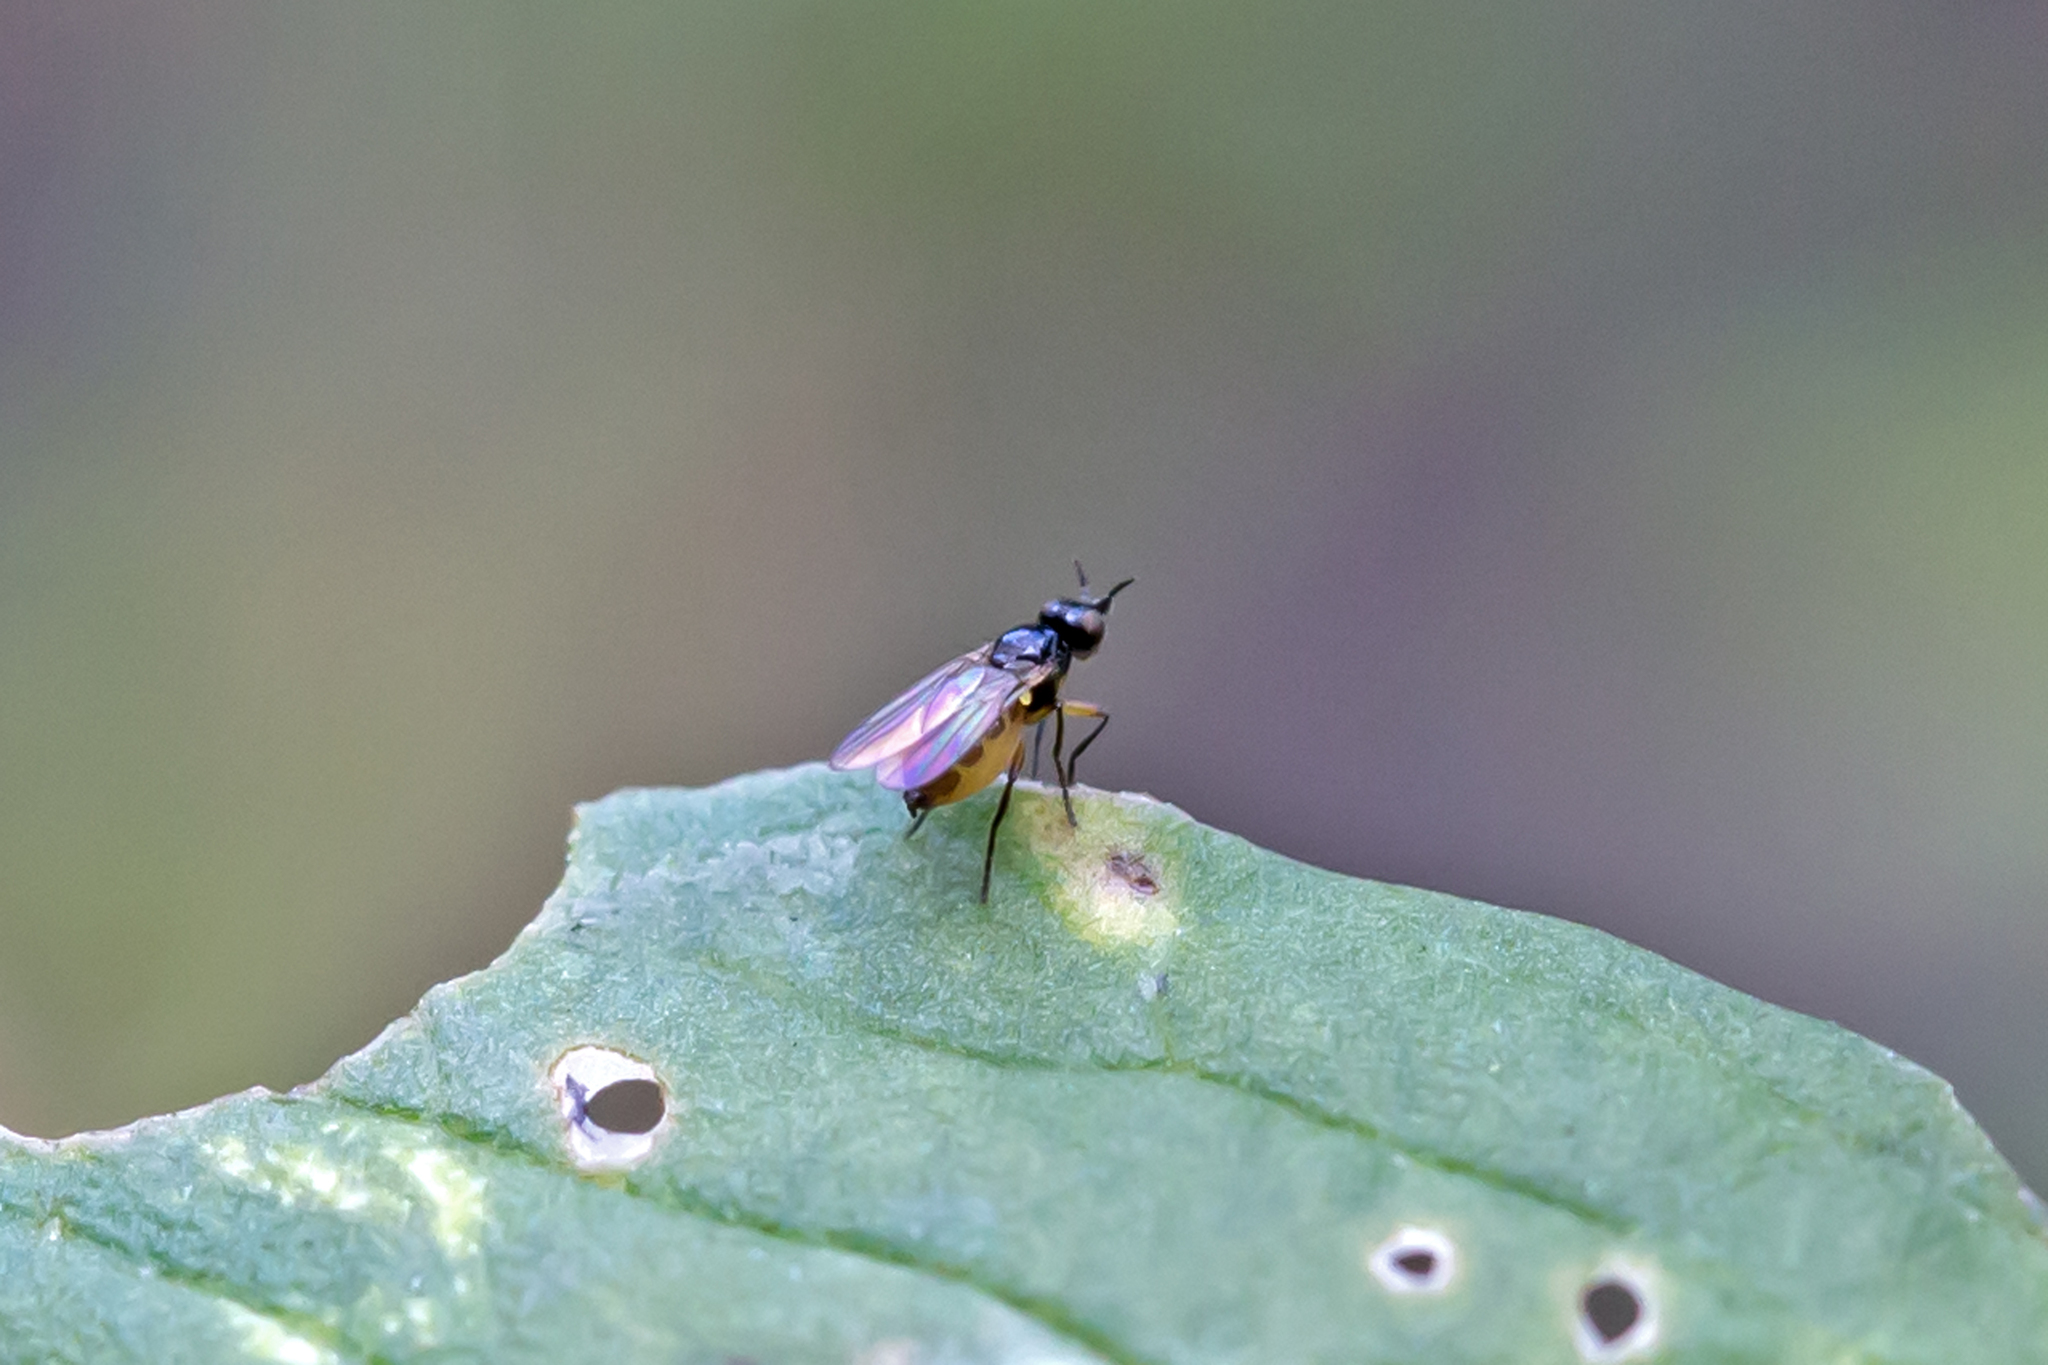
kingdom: Animalia
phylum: Arthropoda
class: Insecta
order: Diptera
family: Chloropidae
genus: Monochaetoscinella
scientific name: Monochaetoscinella nigricornis
